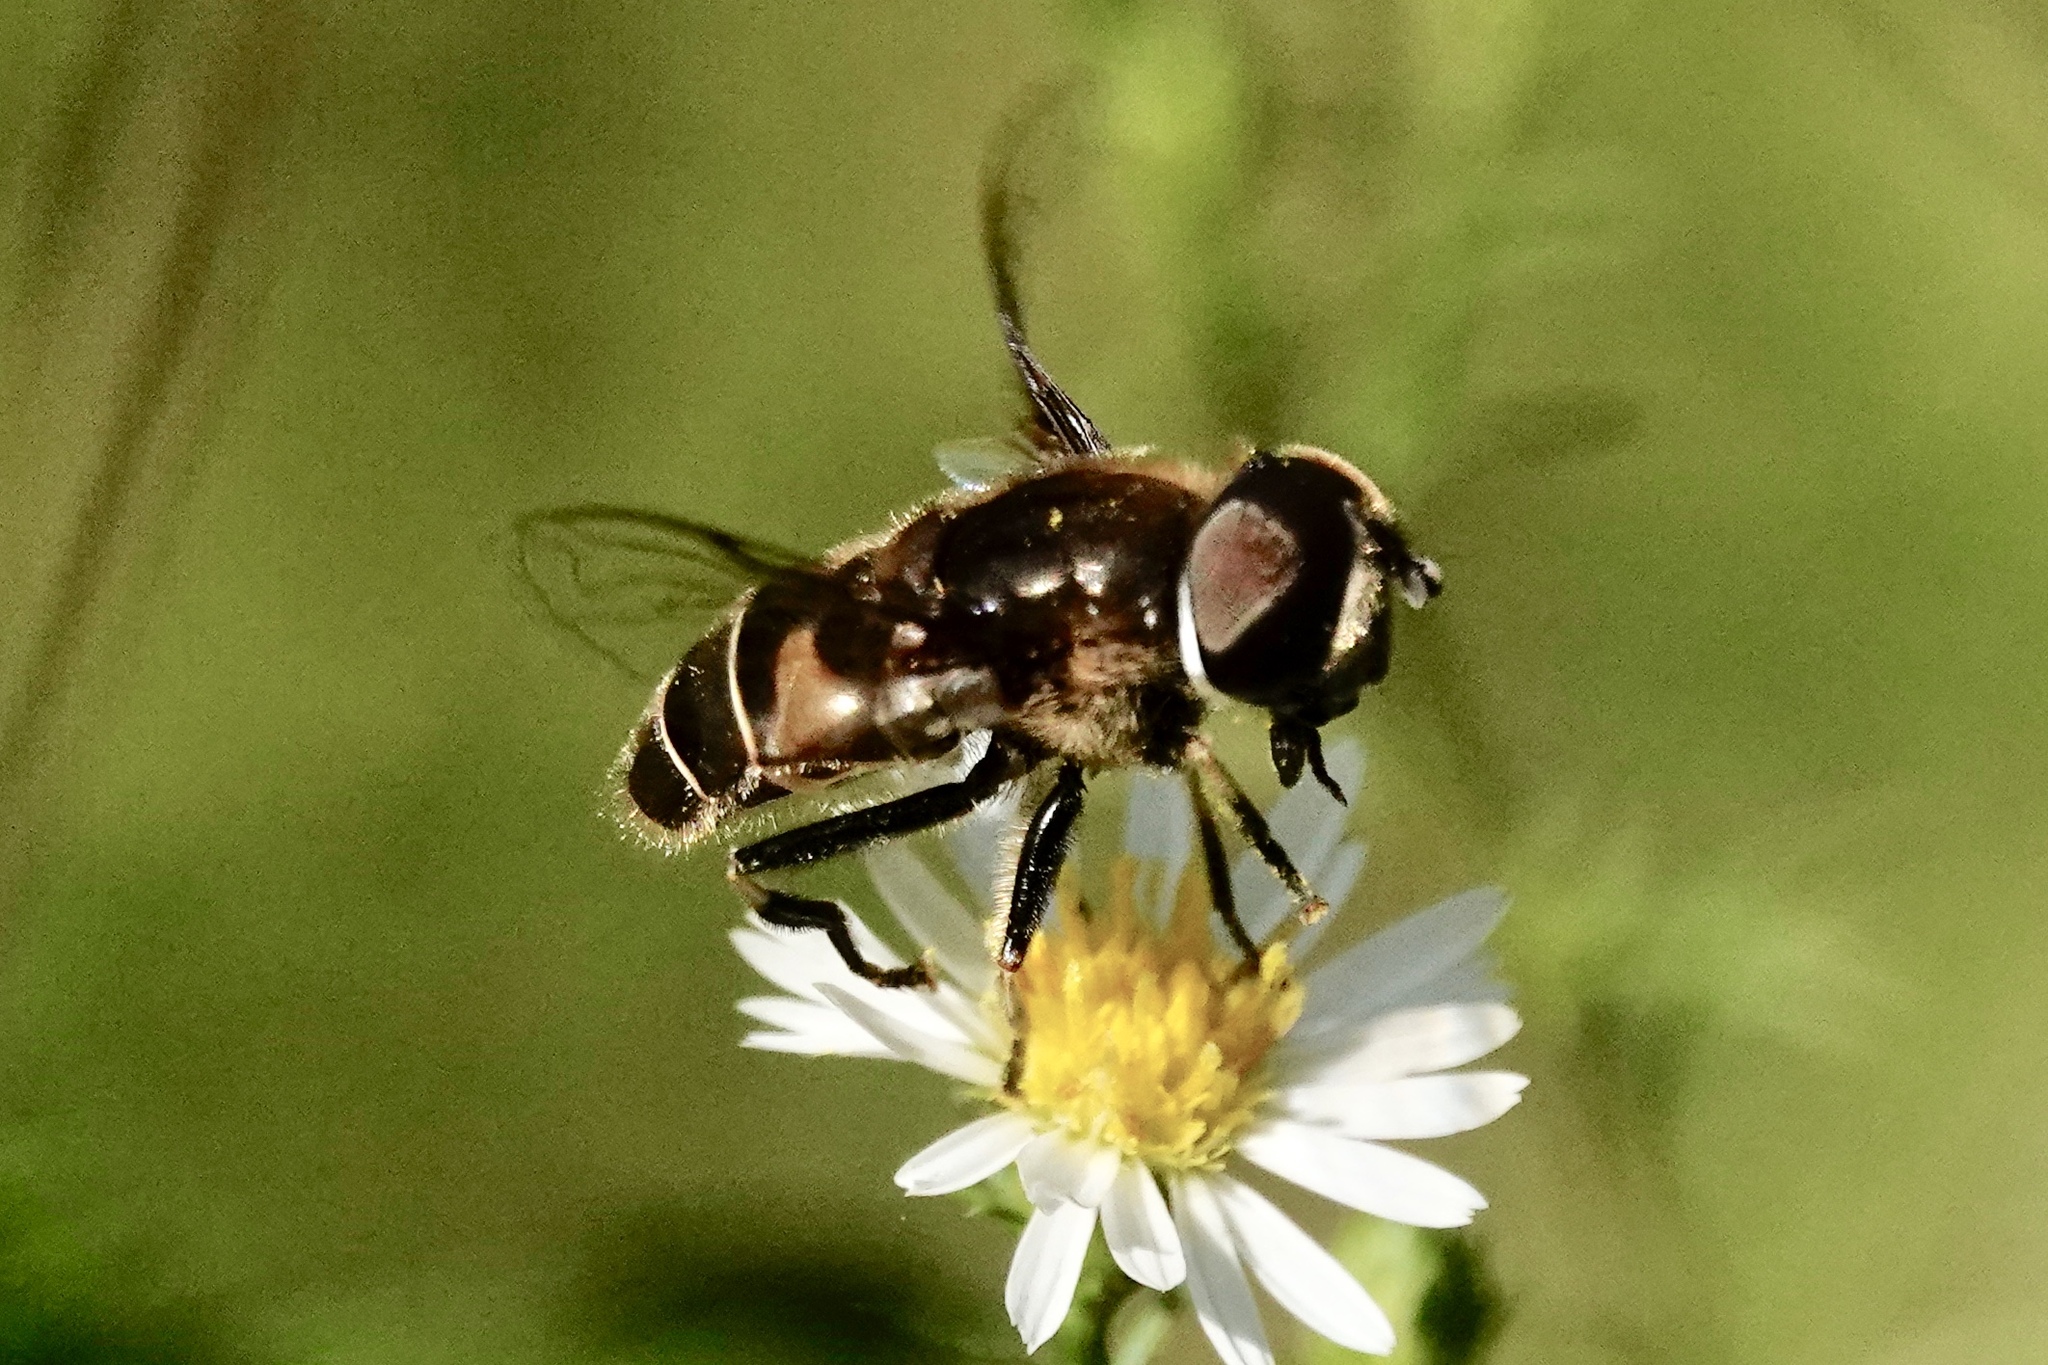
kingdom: Animalia
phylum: Arthropoda
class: Insecta
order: Diptera
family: Syrphidae
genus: Eristalis
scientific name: Eristalis dimidiata
